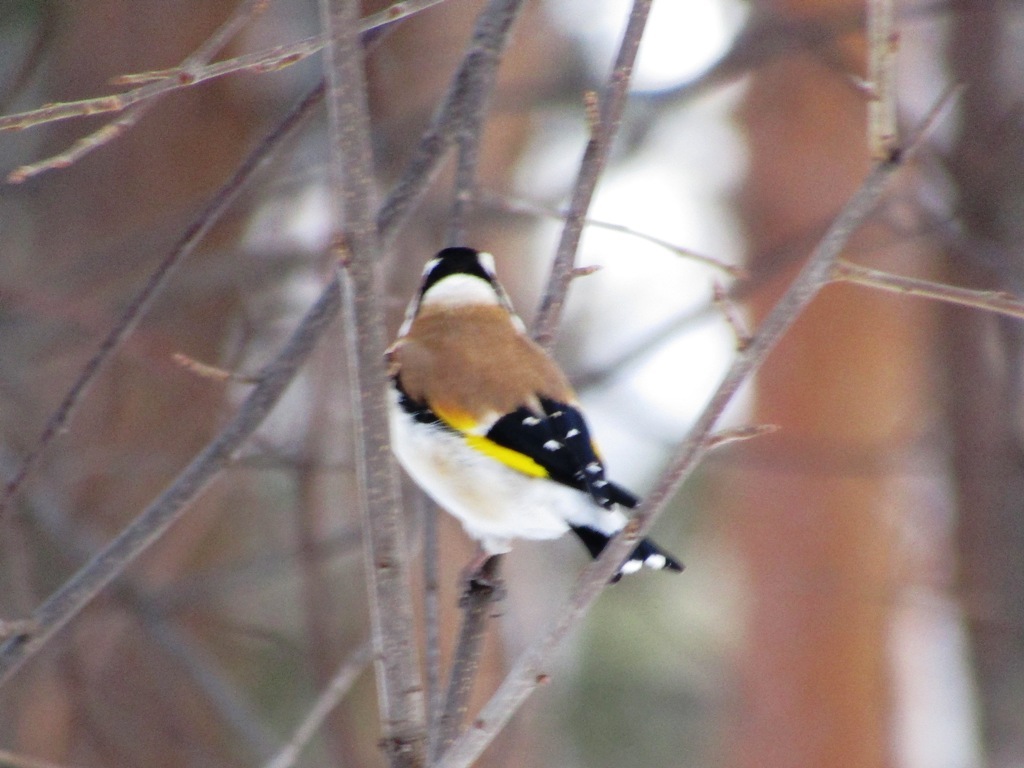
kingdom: Animalia
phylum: Chordata
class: Aves
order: Passeriformes
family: Fringillidae
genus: Carduelis
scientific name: Carduelis carduelis
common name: European goldfinch
